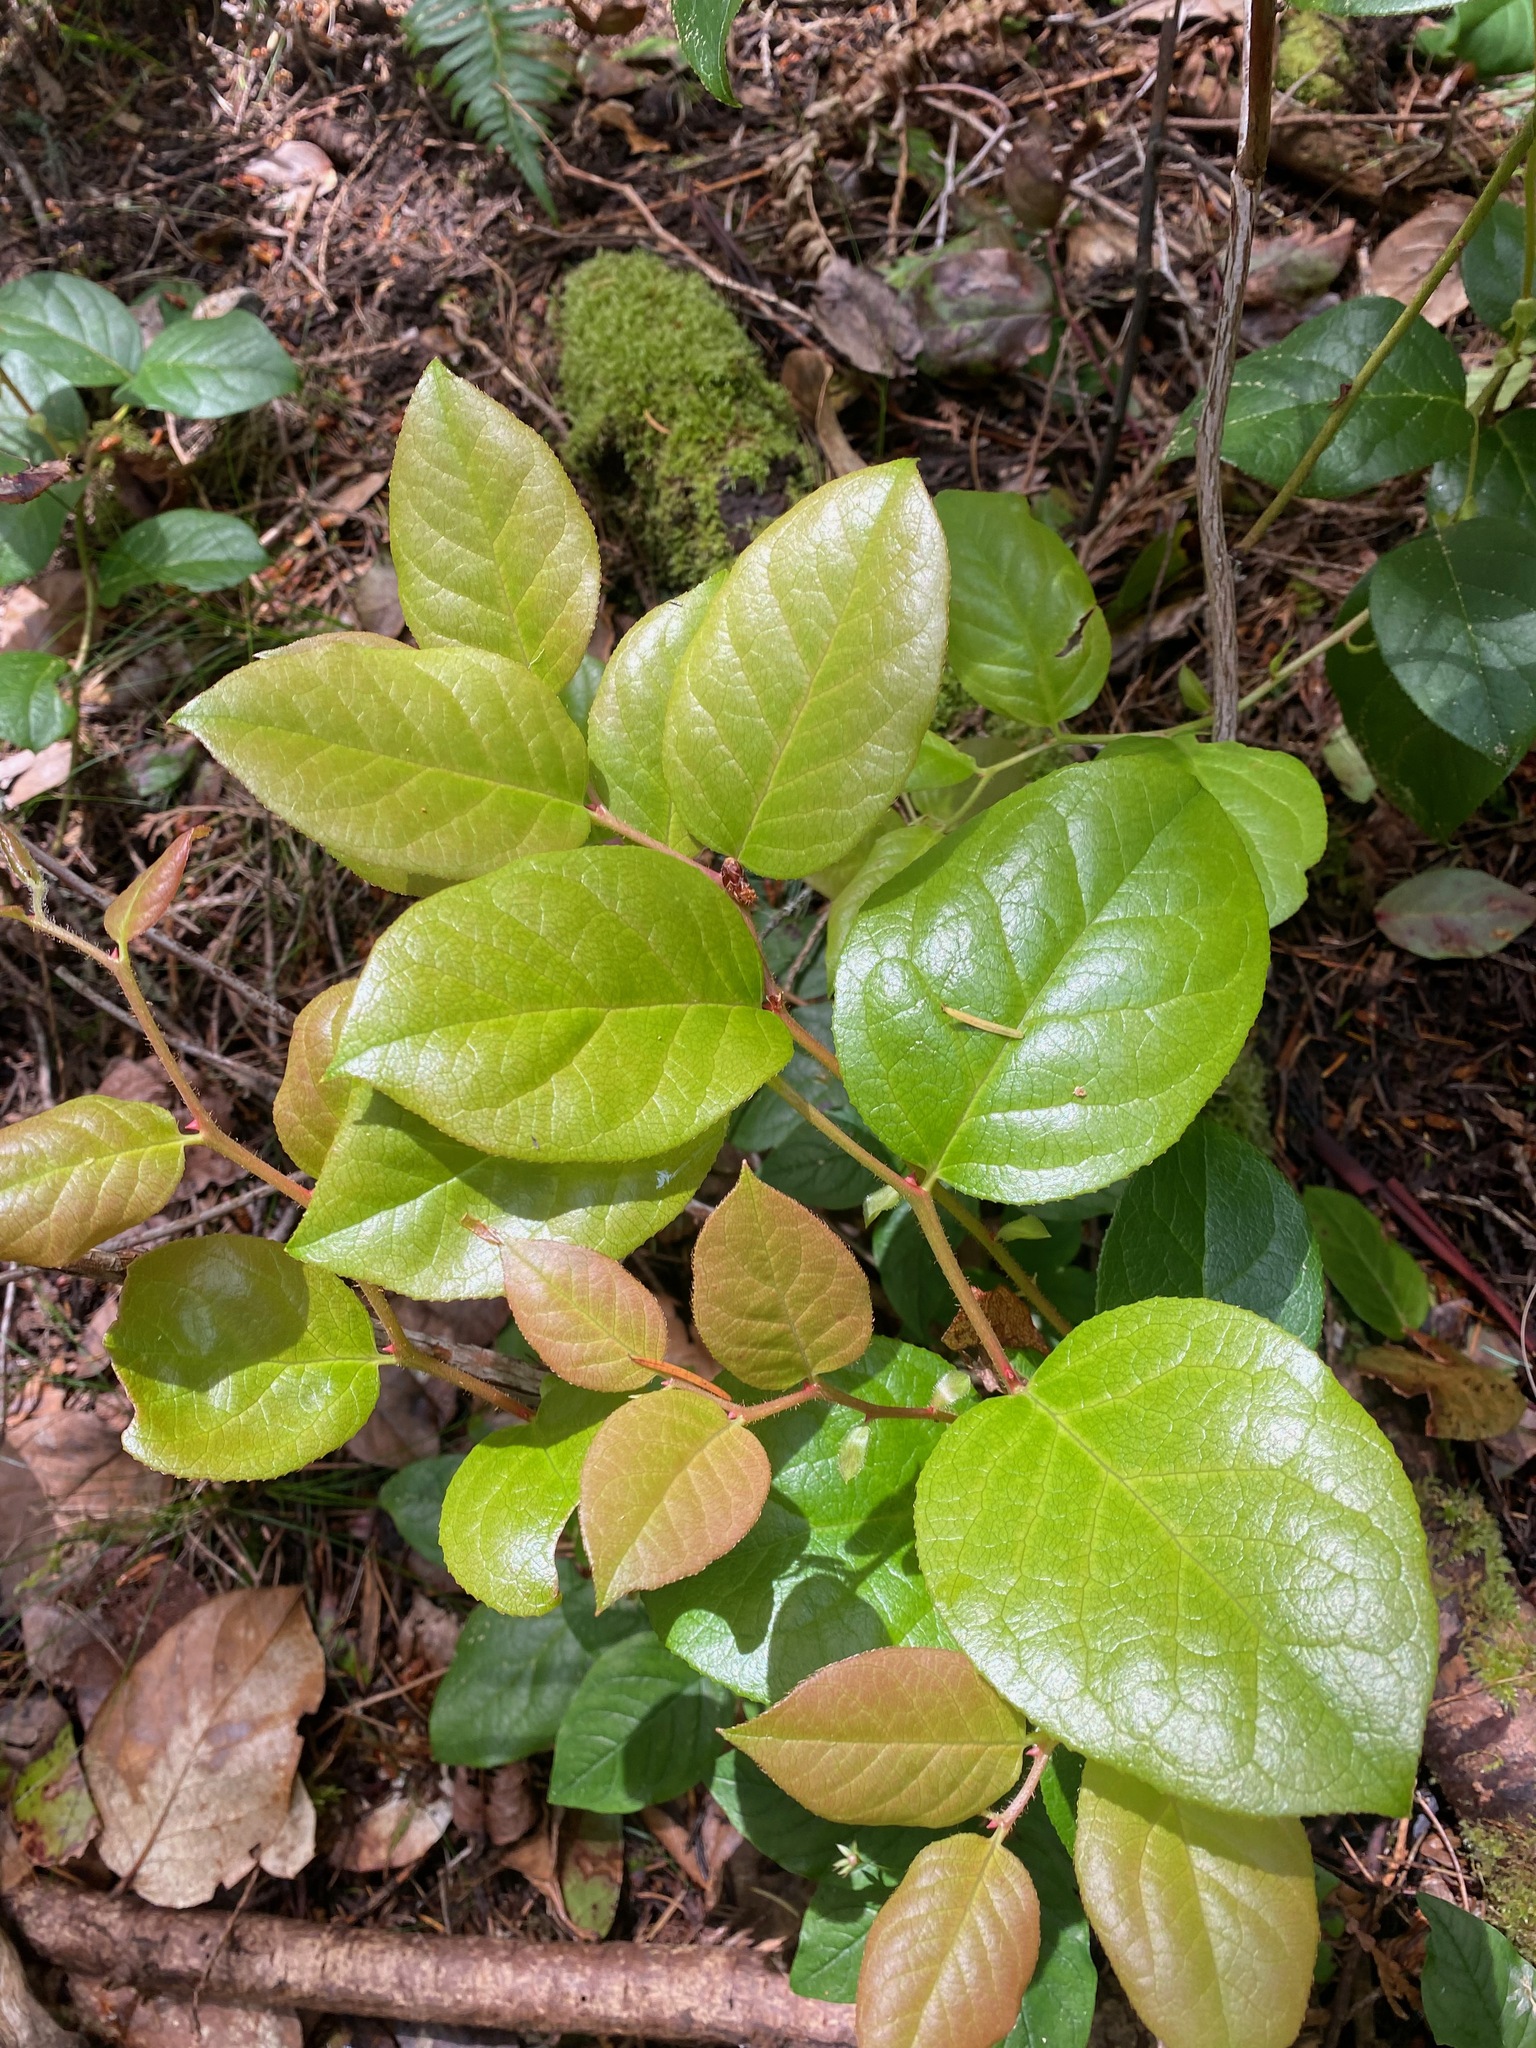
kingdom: Plantae
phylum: Tracheophyta
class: Magnoliopsida
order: Ericales
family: Ericaceae
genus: Gaultheria
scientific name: Gaultheria shallon
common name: Shallon
